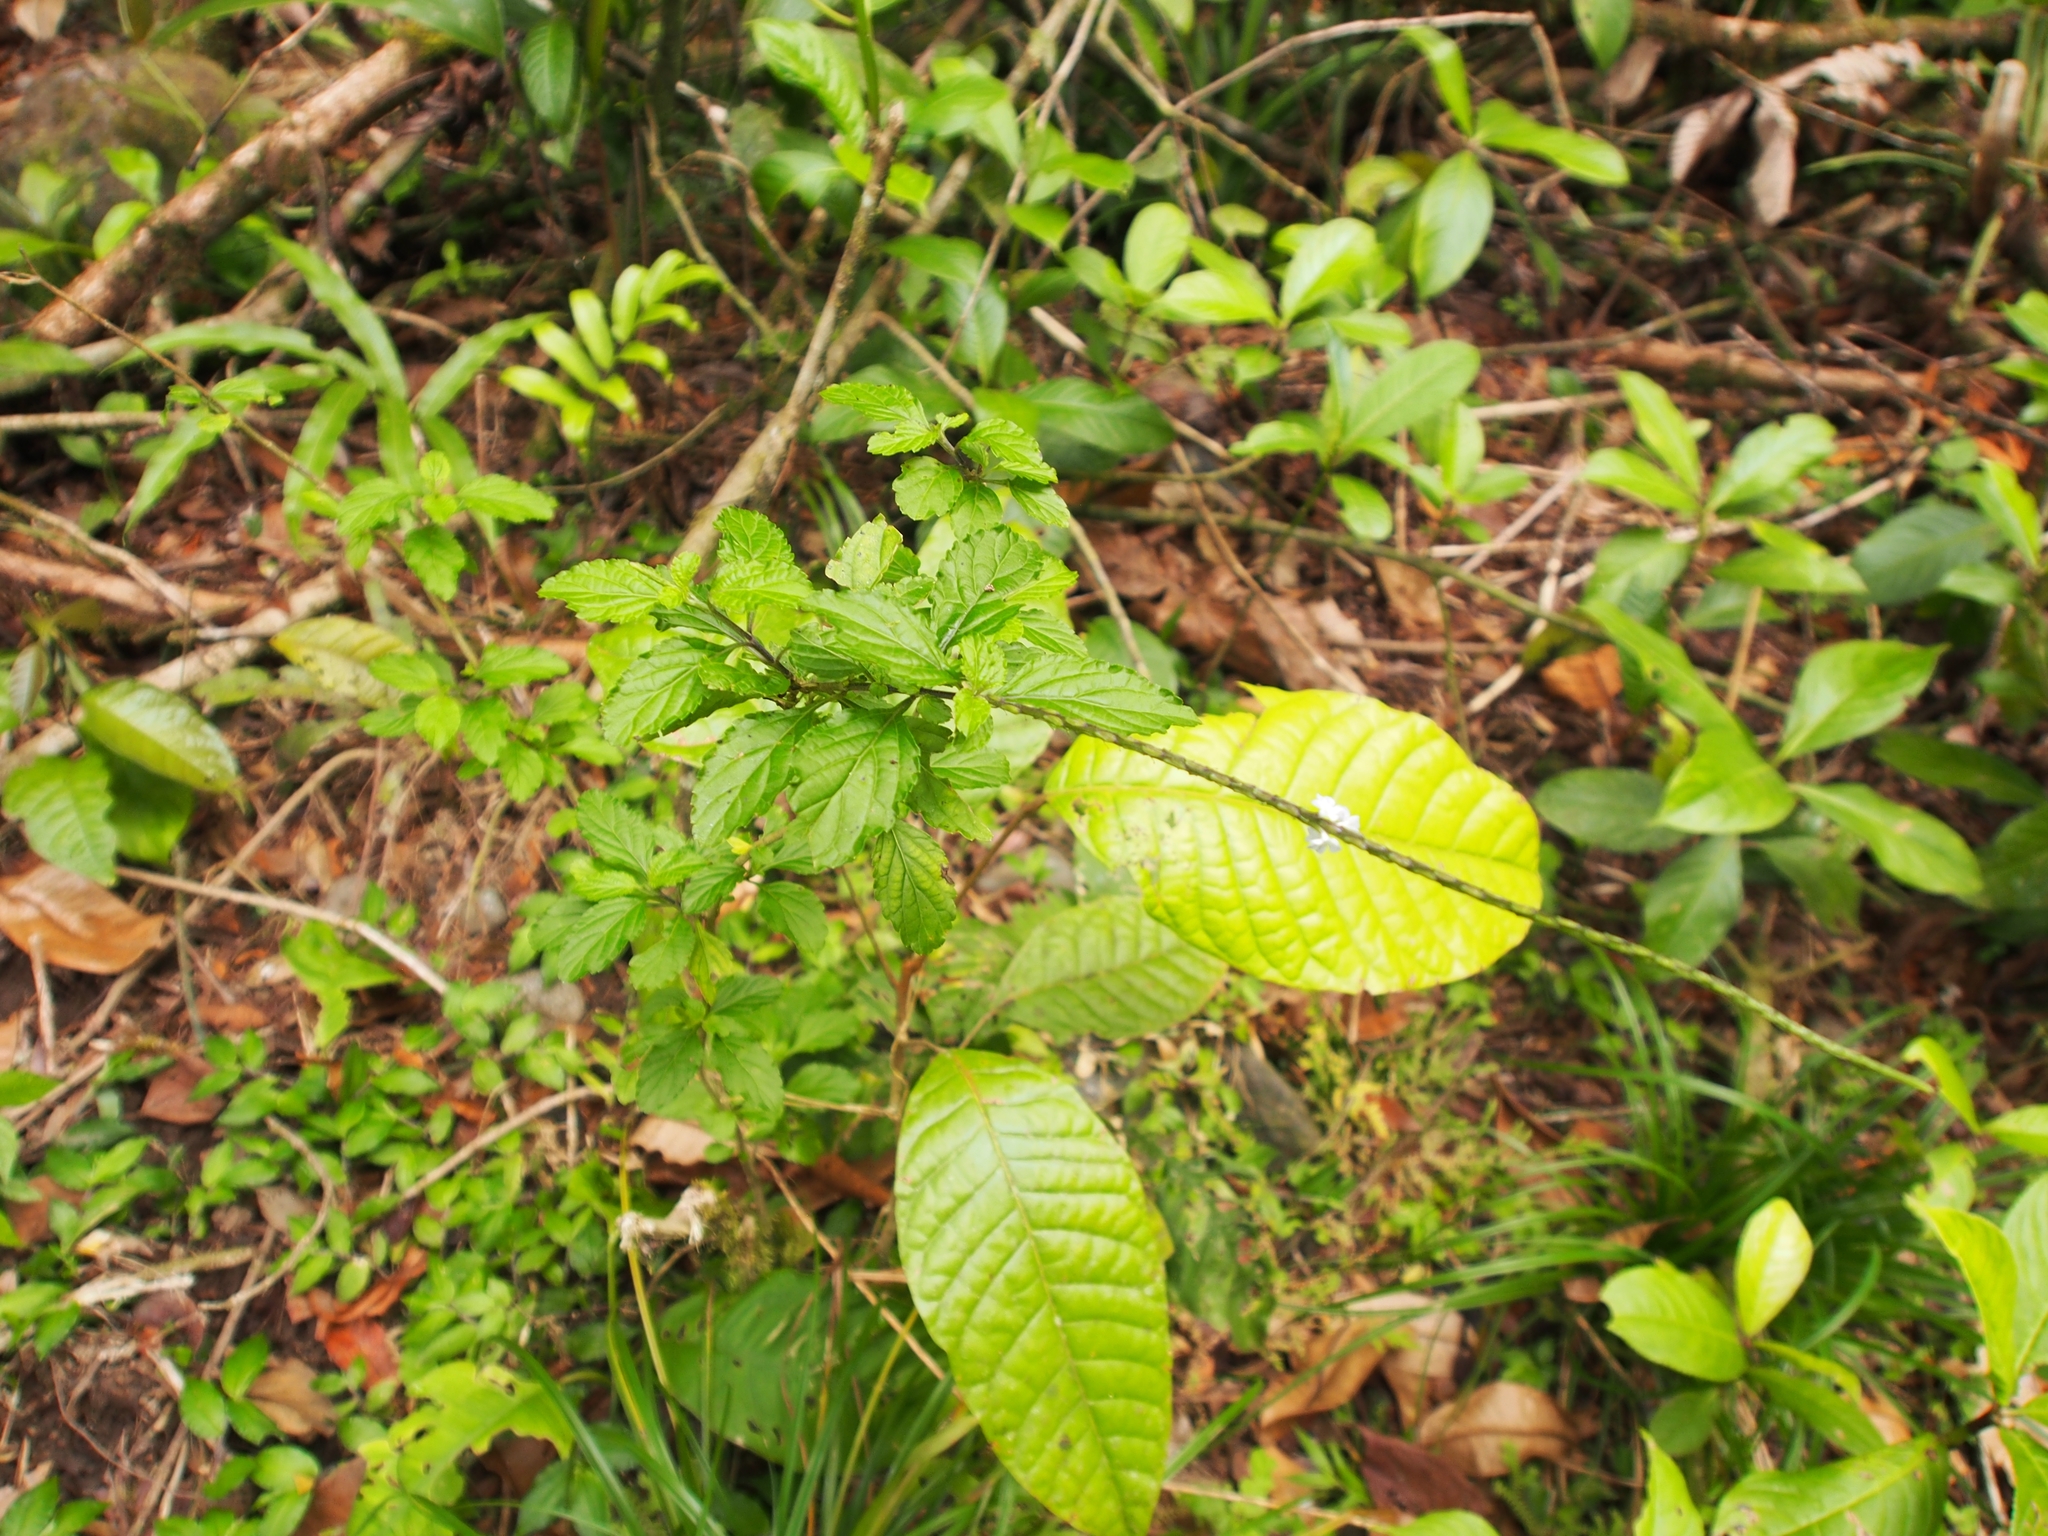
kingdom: Plantae
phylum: Tracheophyta
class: Magnoliopsida
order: Boraginales
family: Heliotropiaceae
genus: Heliotropium
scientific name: Heliotropium indicum
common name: Indian heliotrope
